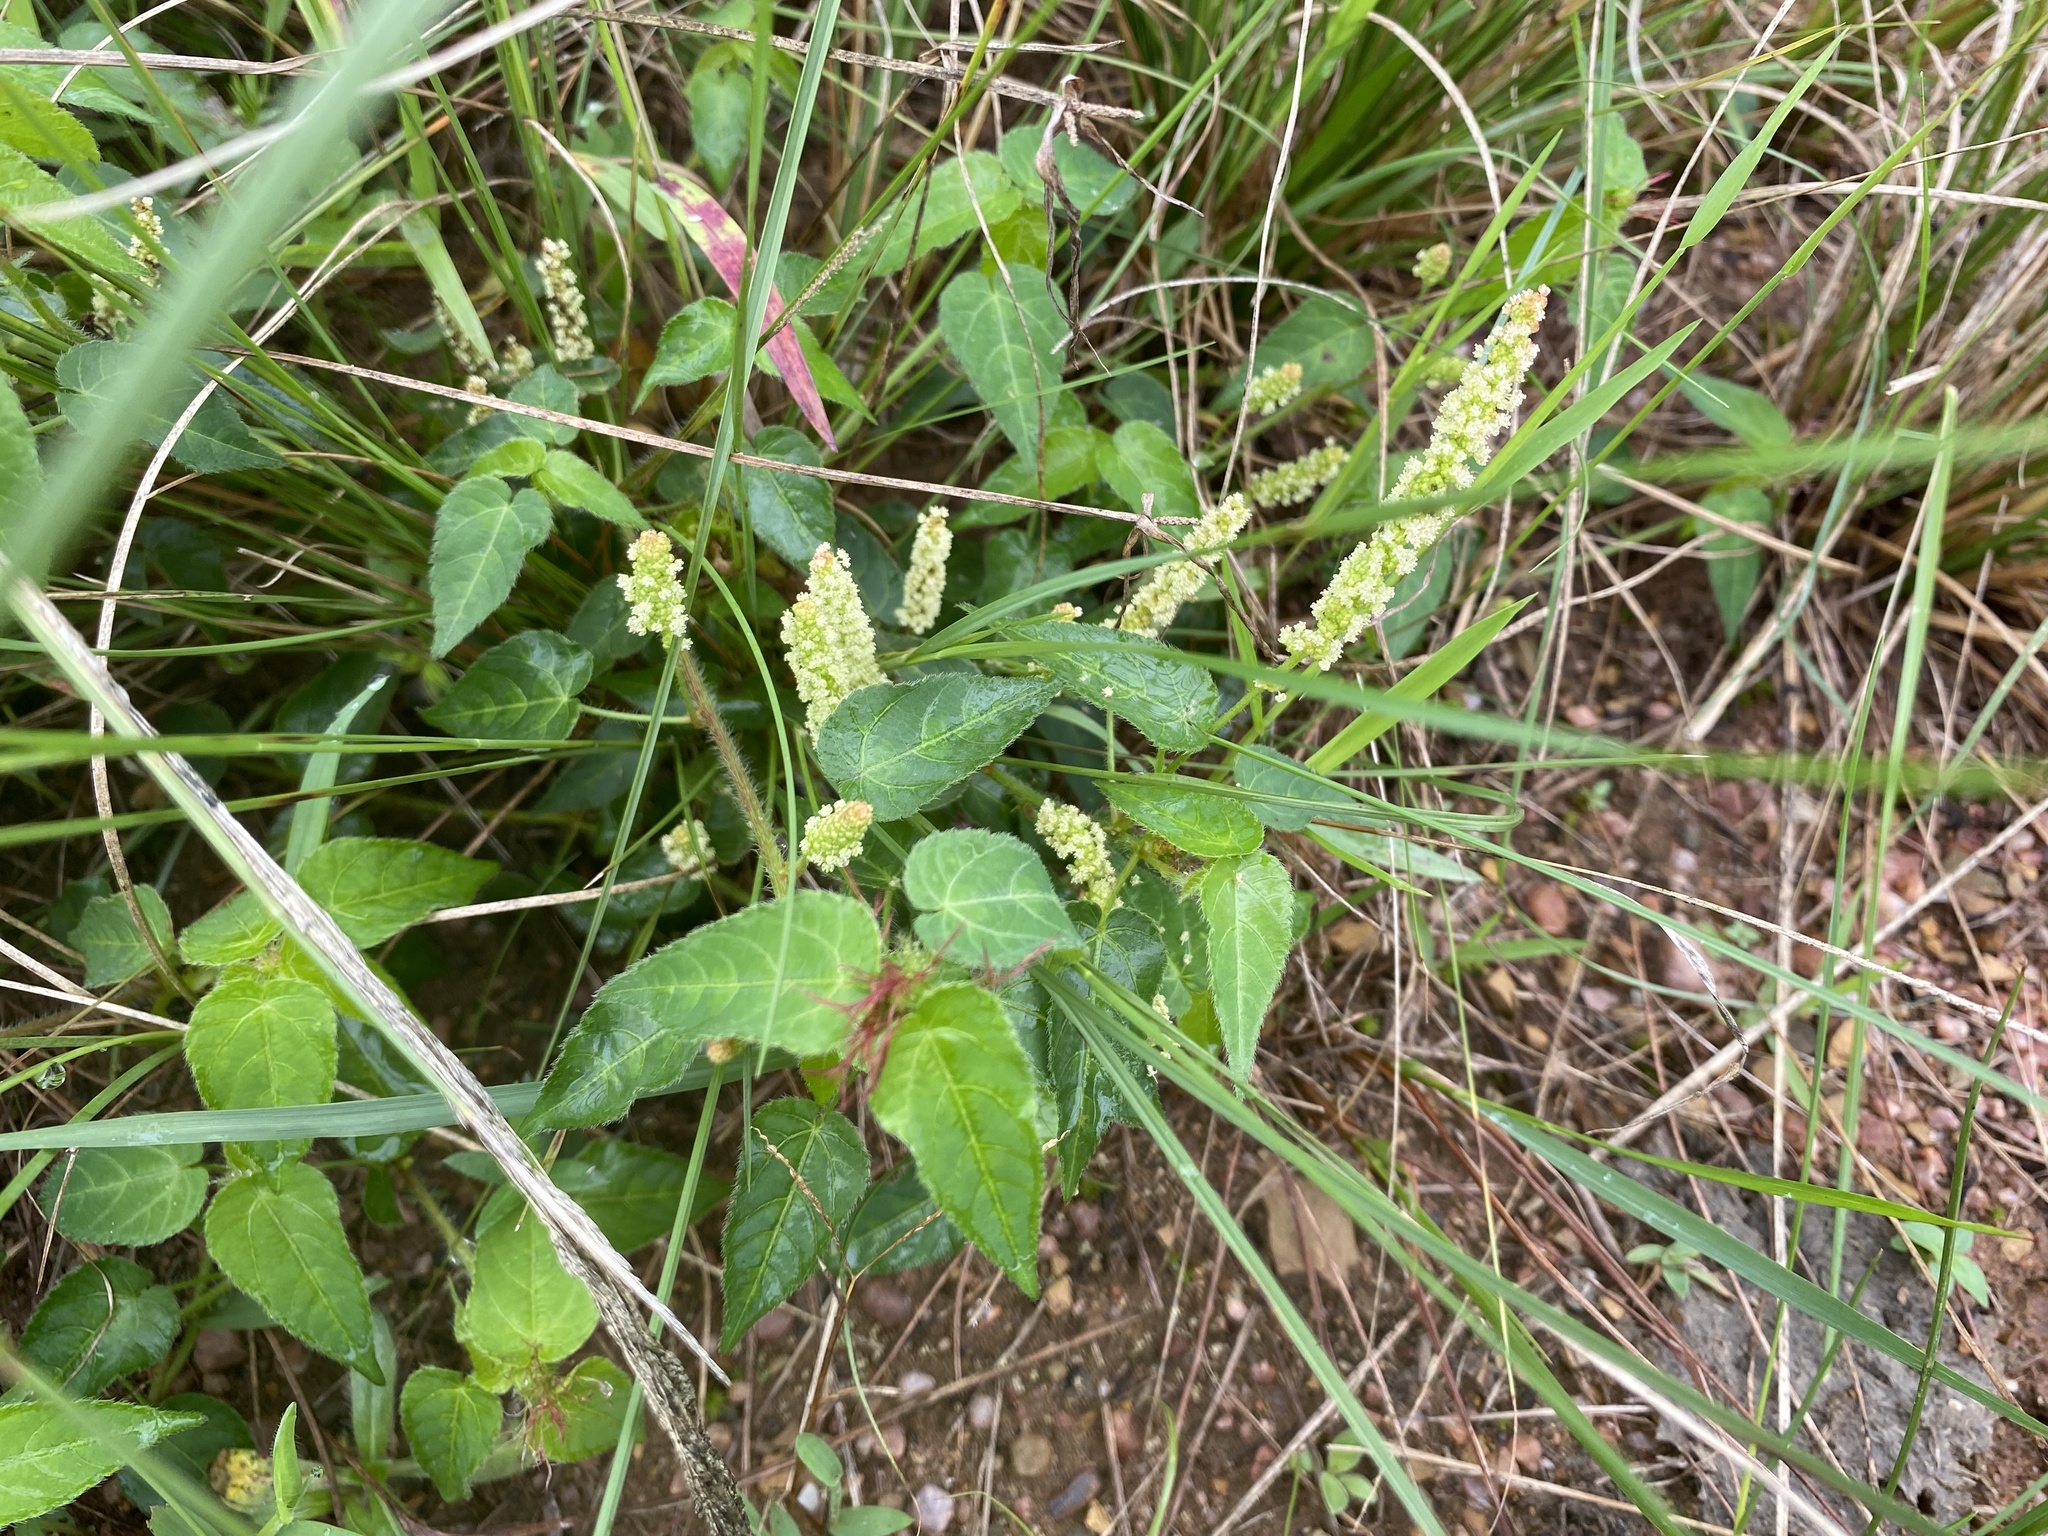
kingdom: Plantae
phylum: Tracheophyta
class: Magnoliopsida
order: Malpighiales
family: Euphorbiaceae
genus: Acalypha
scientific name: Acalypha petiolaris
